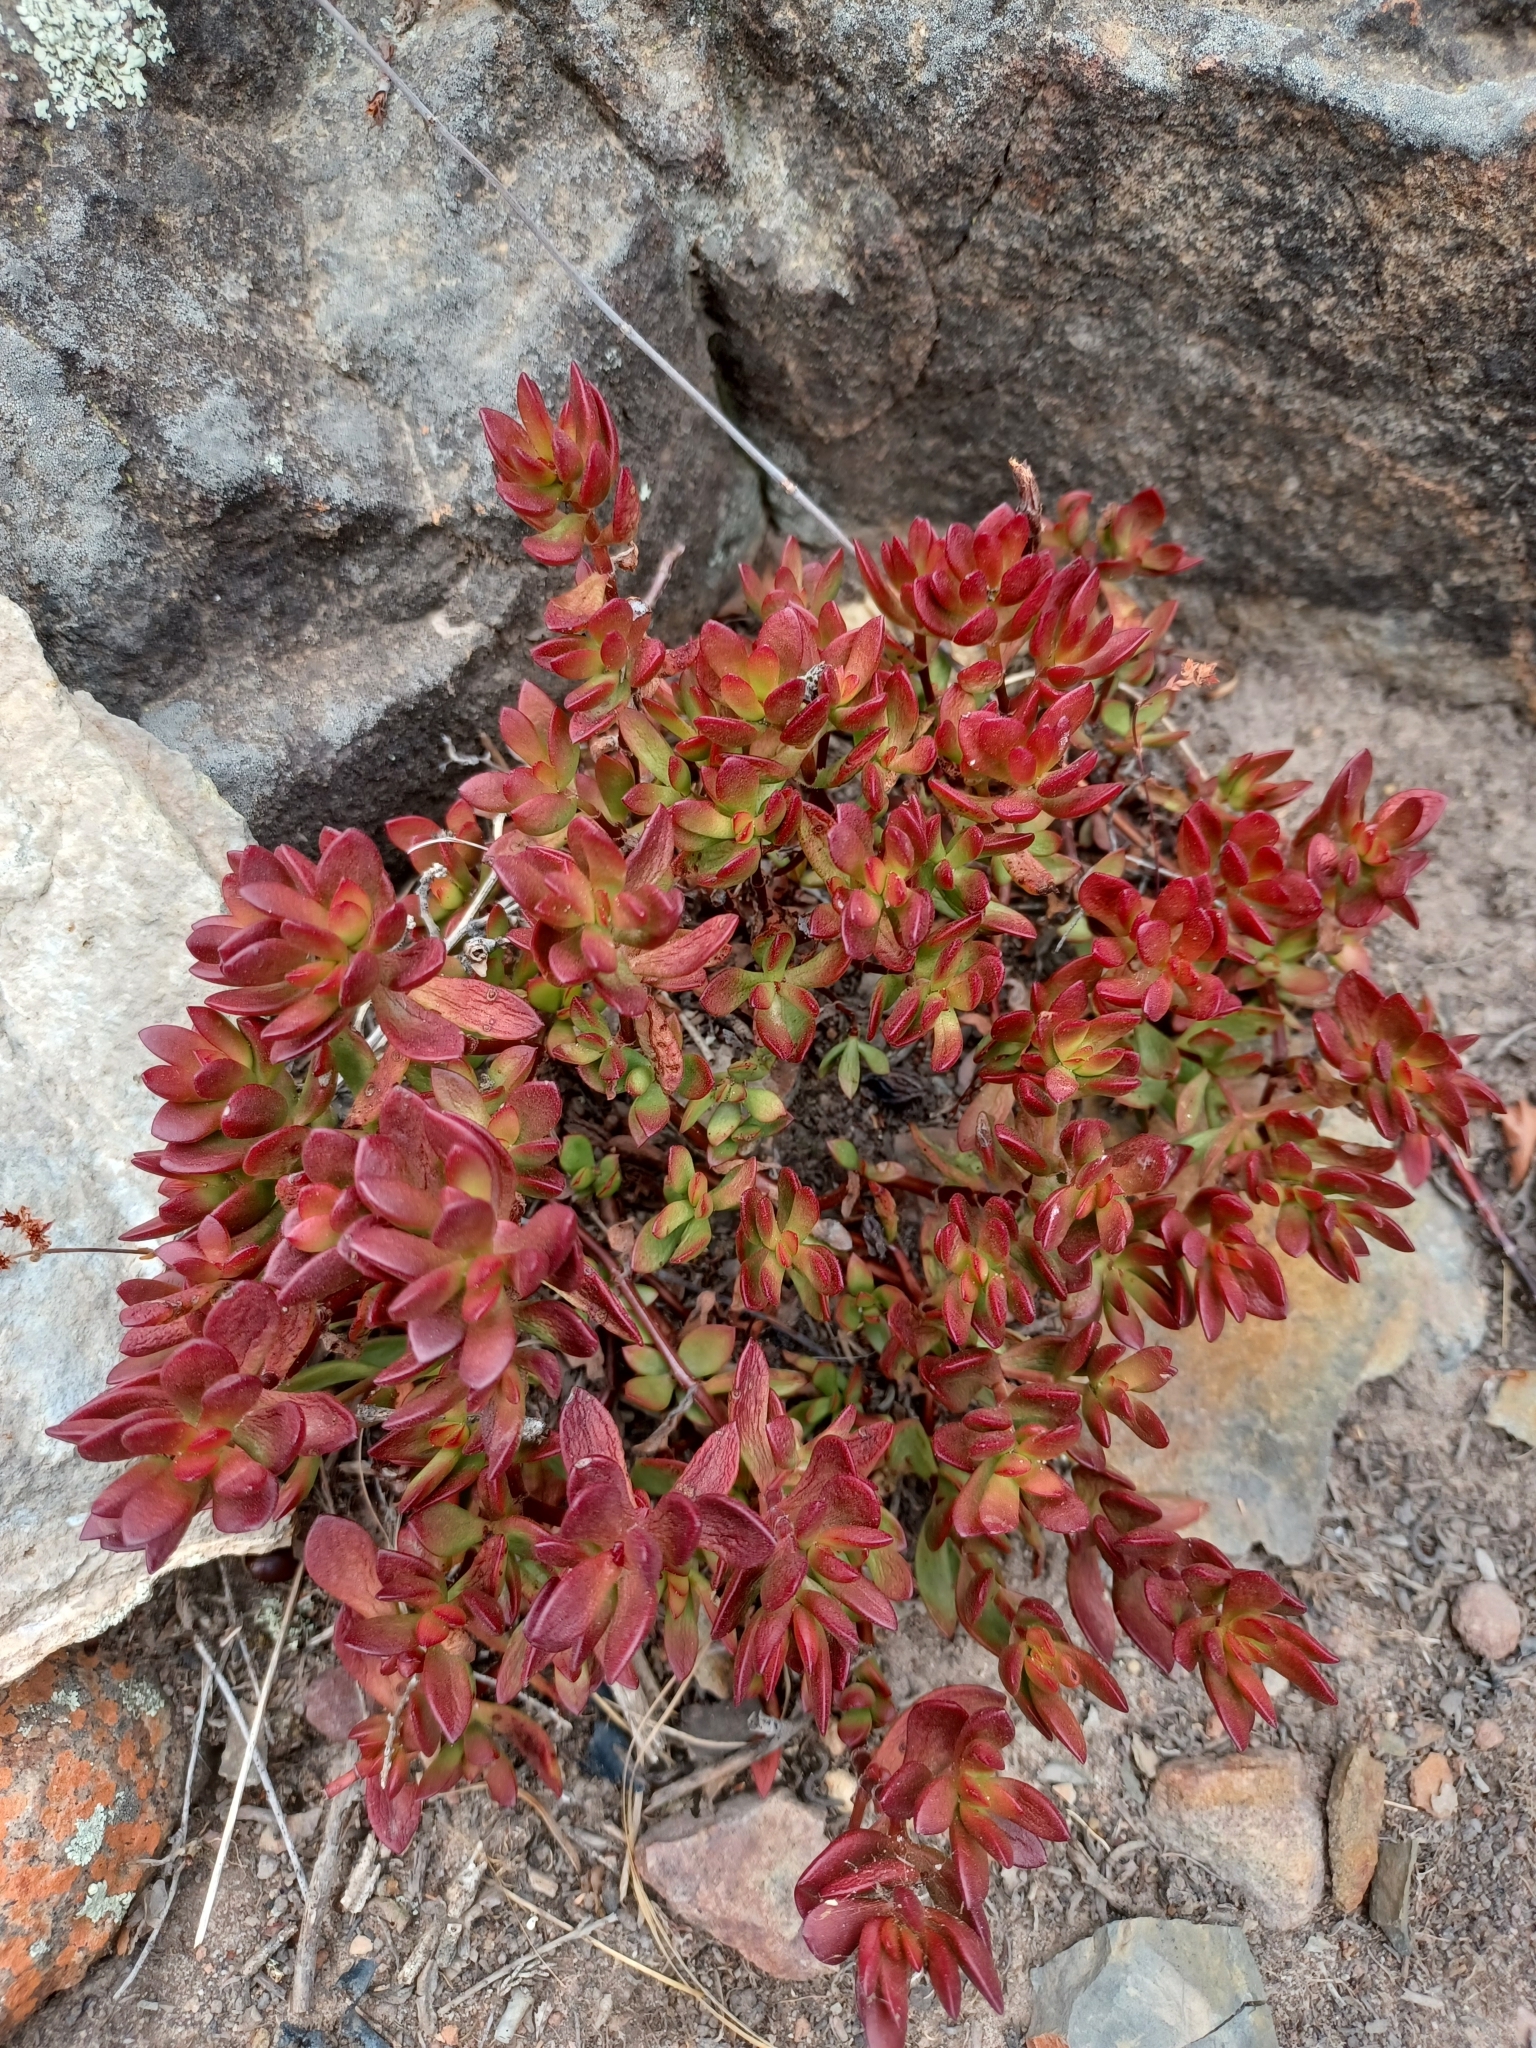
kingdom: Plantae
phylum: Tracheophyta
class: Magnoliopsida
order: Saxifragales
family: Crassulaceae
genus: Crassula
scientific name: Crassula atropurpurea
